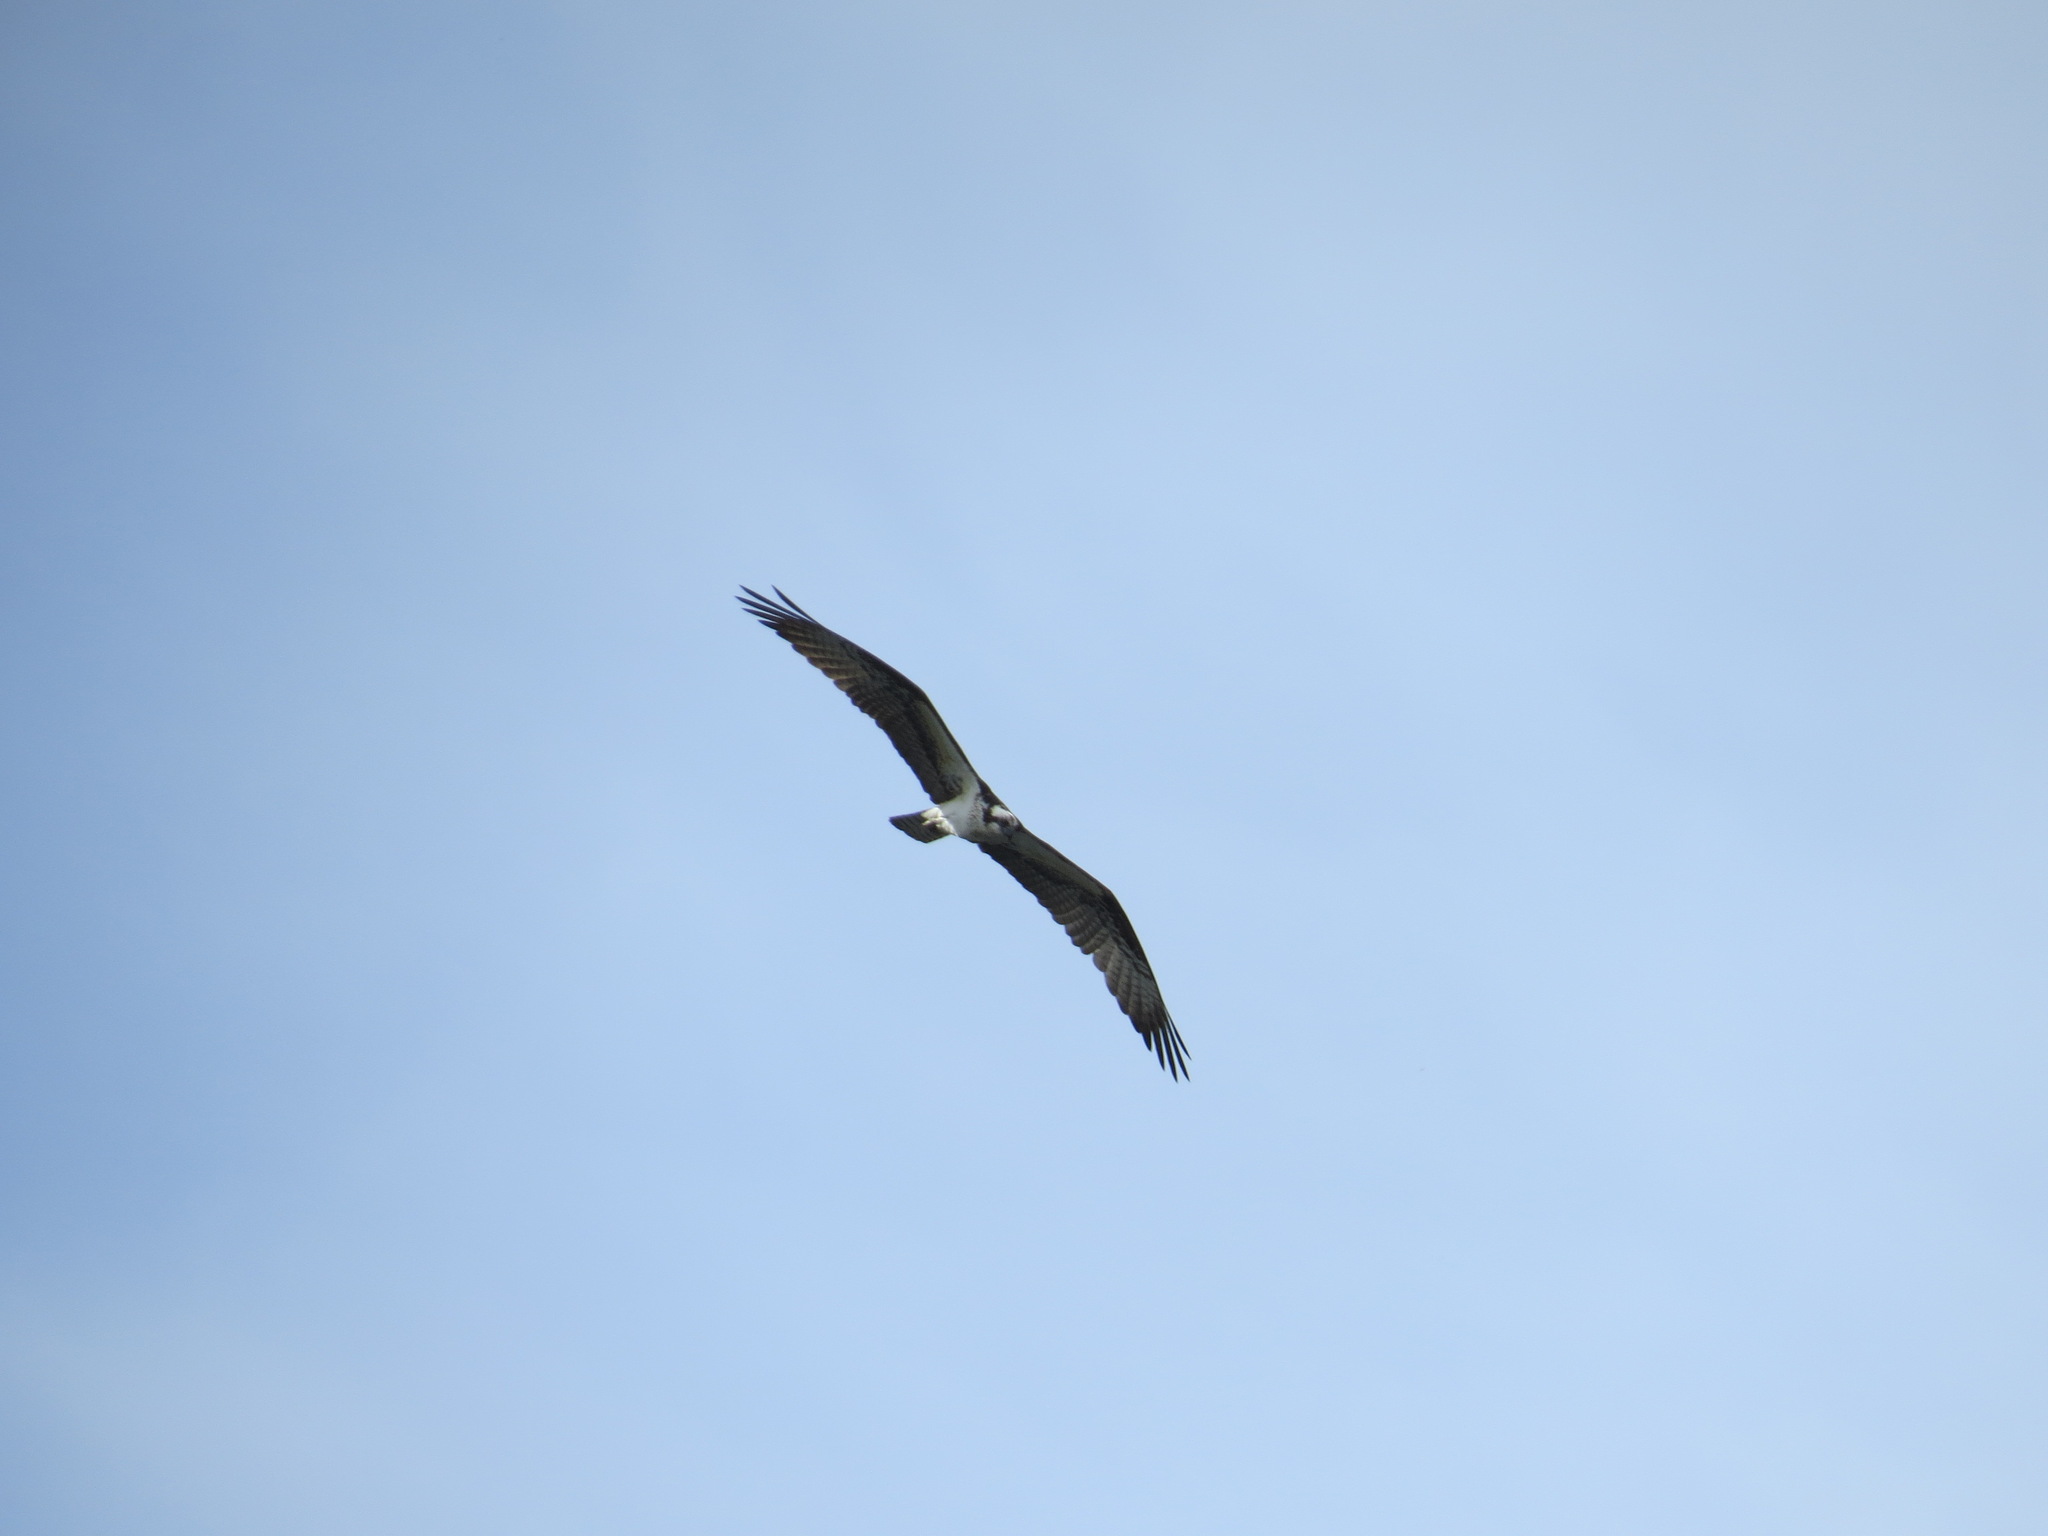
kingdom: Animalia
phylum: Chordata
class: Aves
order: Accipitriformes
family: Pandionidae
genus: Pandion
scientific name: Pandion haliaetus
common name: Osprey
